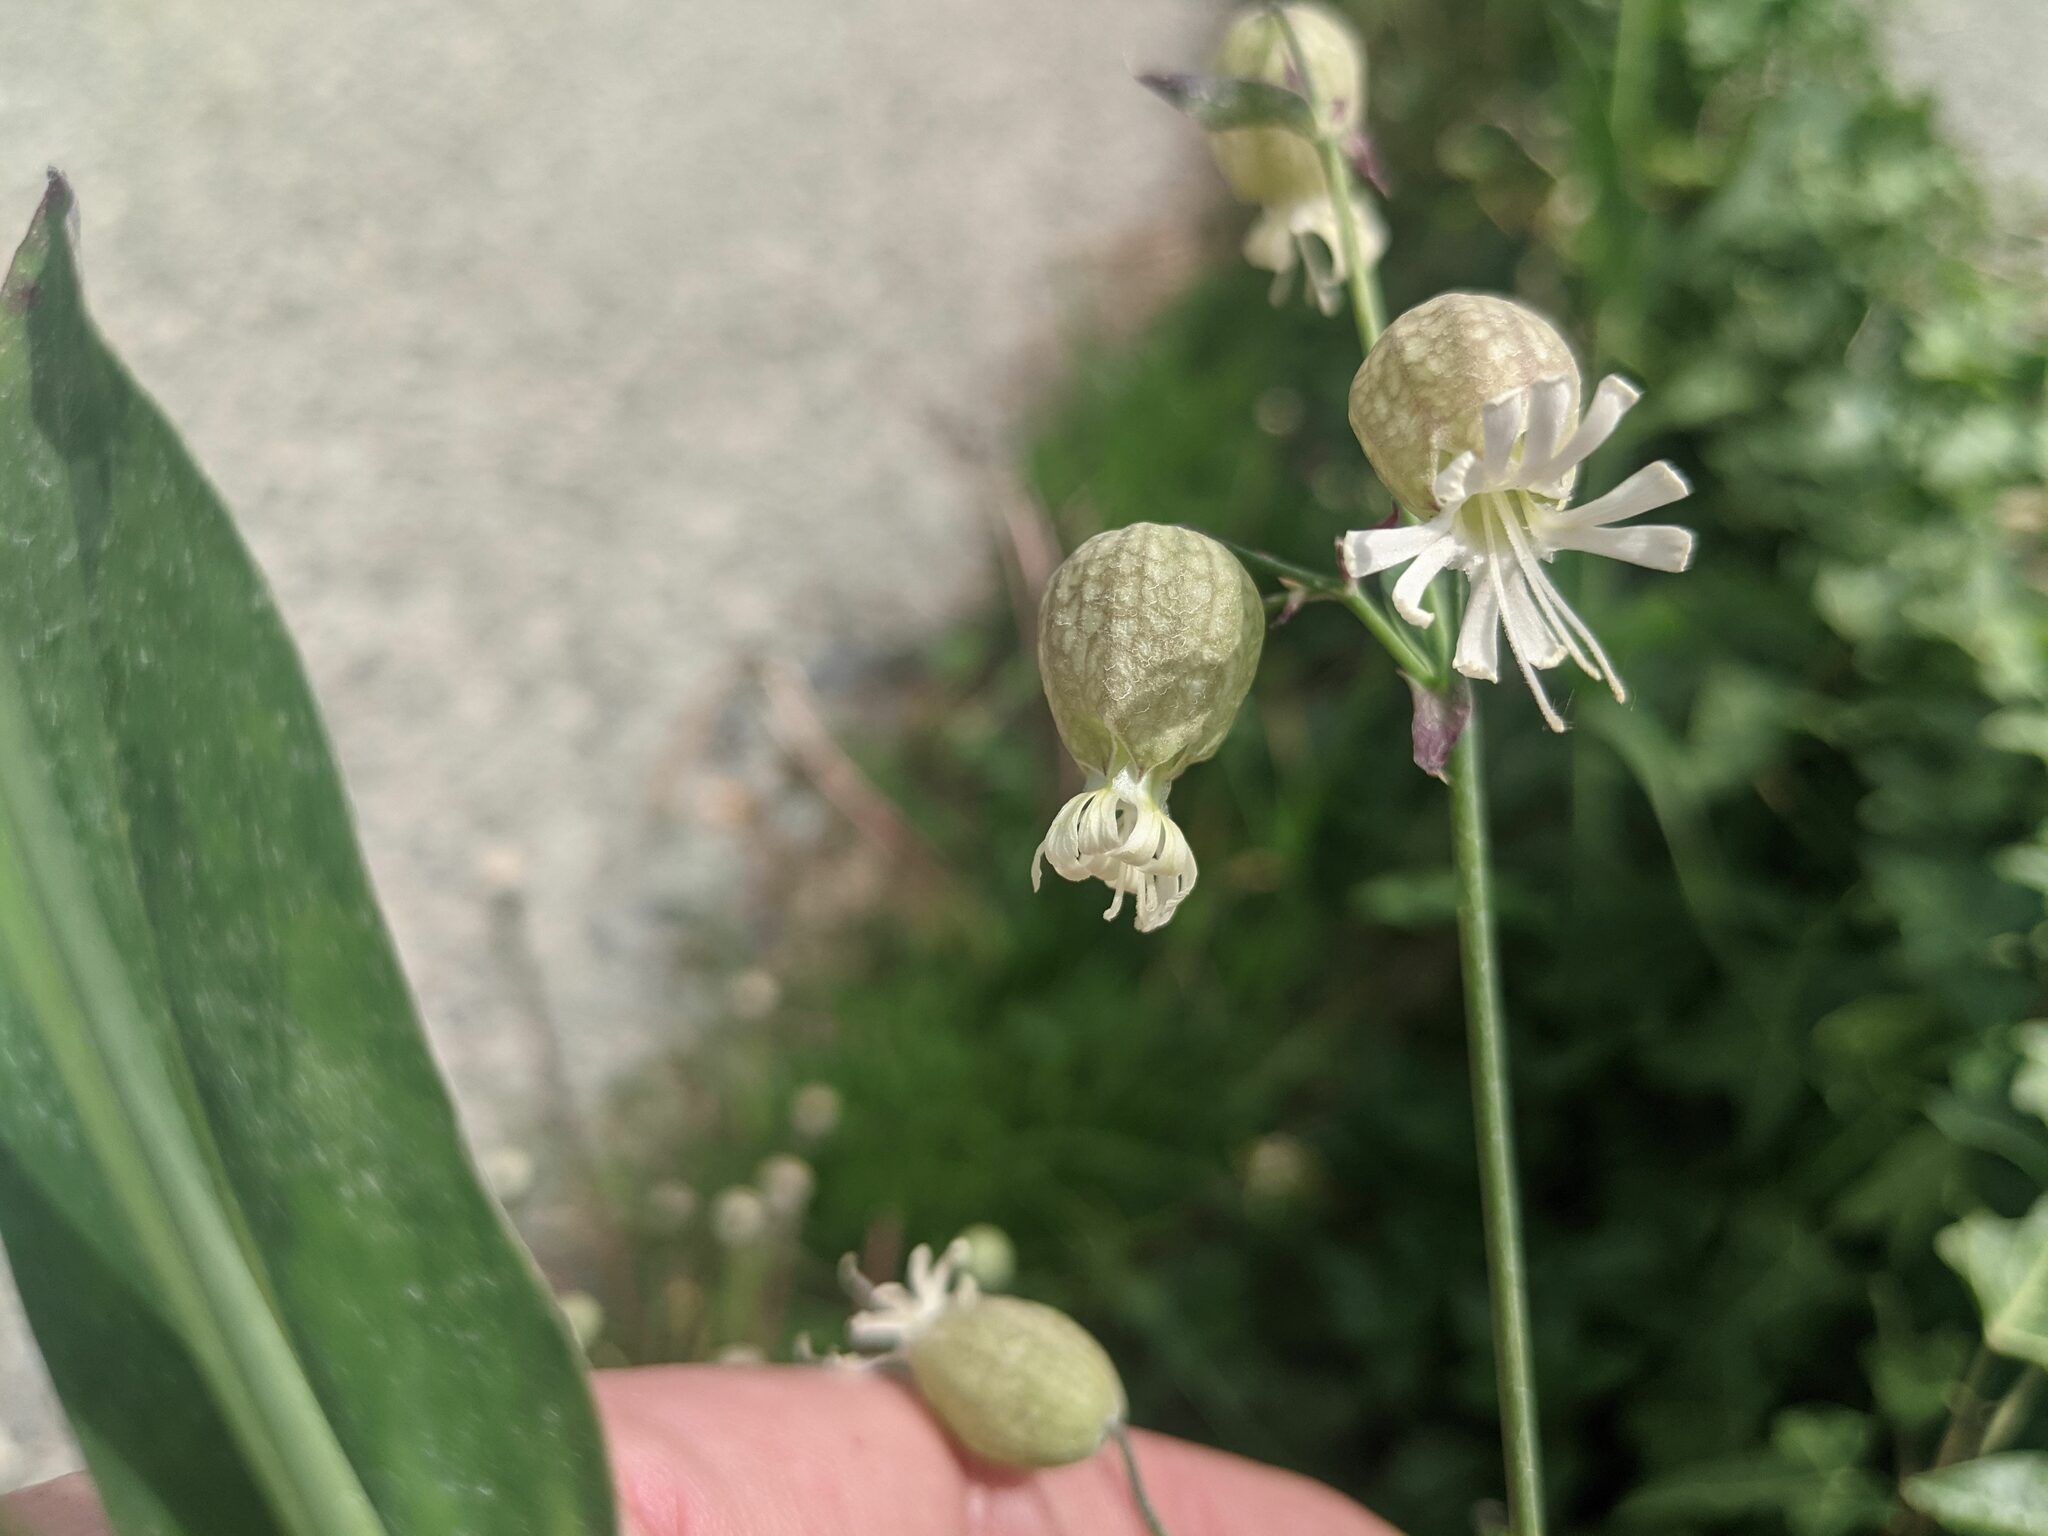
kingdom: Plantae
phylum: Tracheophyta
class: Magnoliopsida
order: Caryophyllales
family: Caryophyllaceae
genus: Silene
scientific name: Silene vulgaris
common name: Bladder campion
